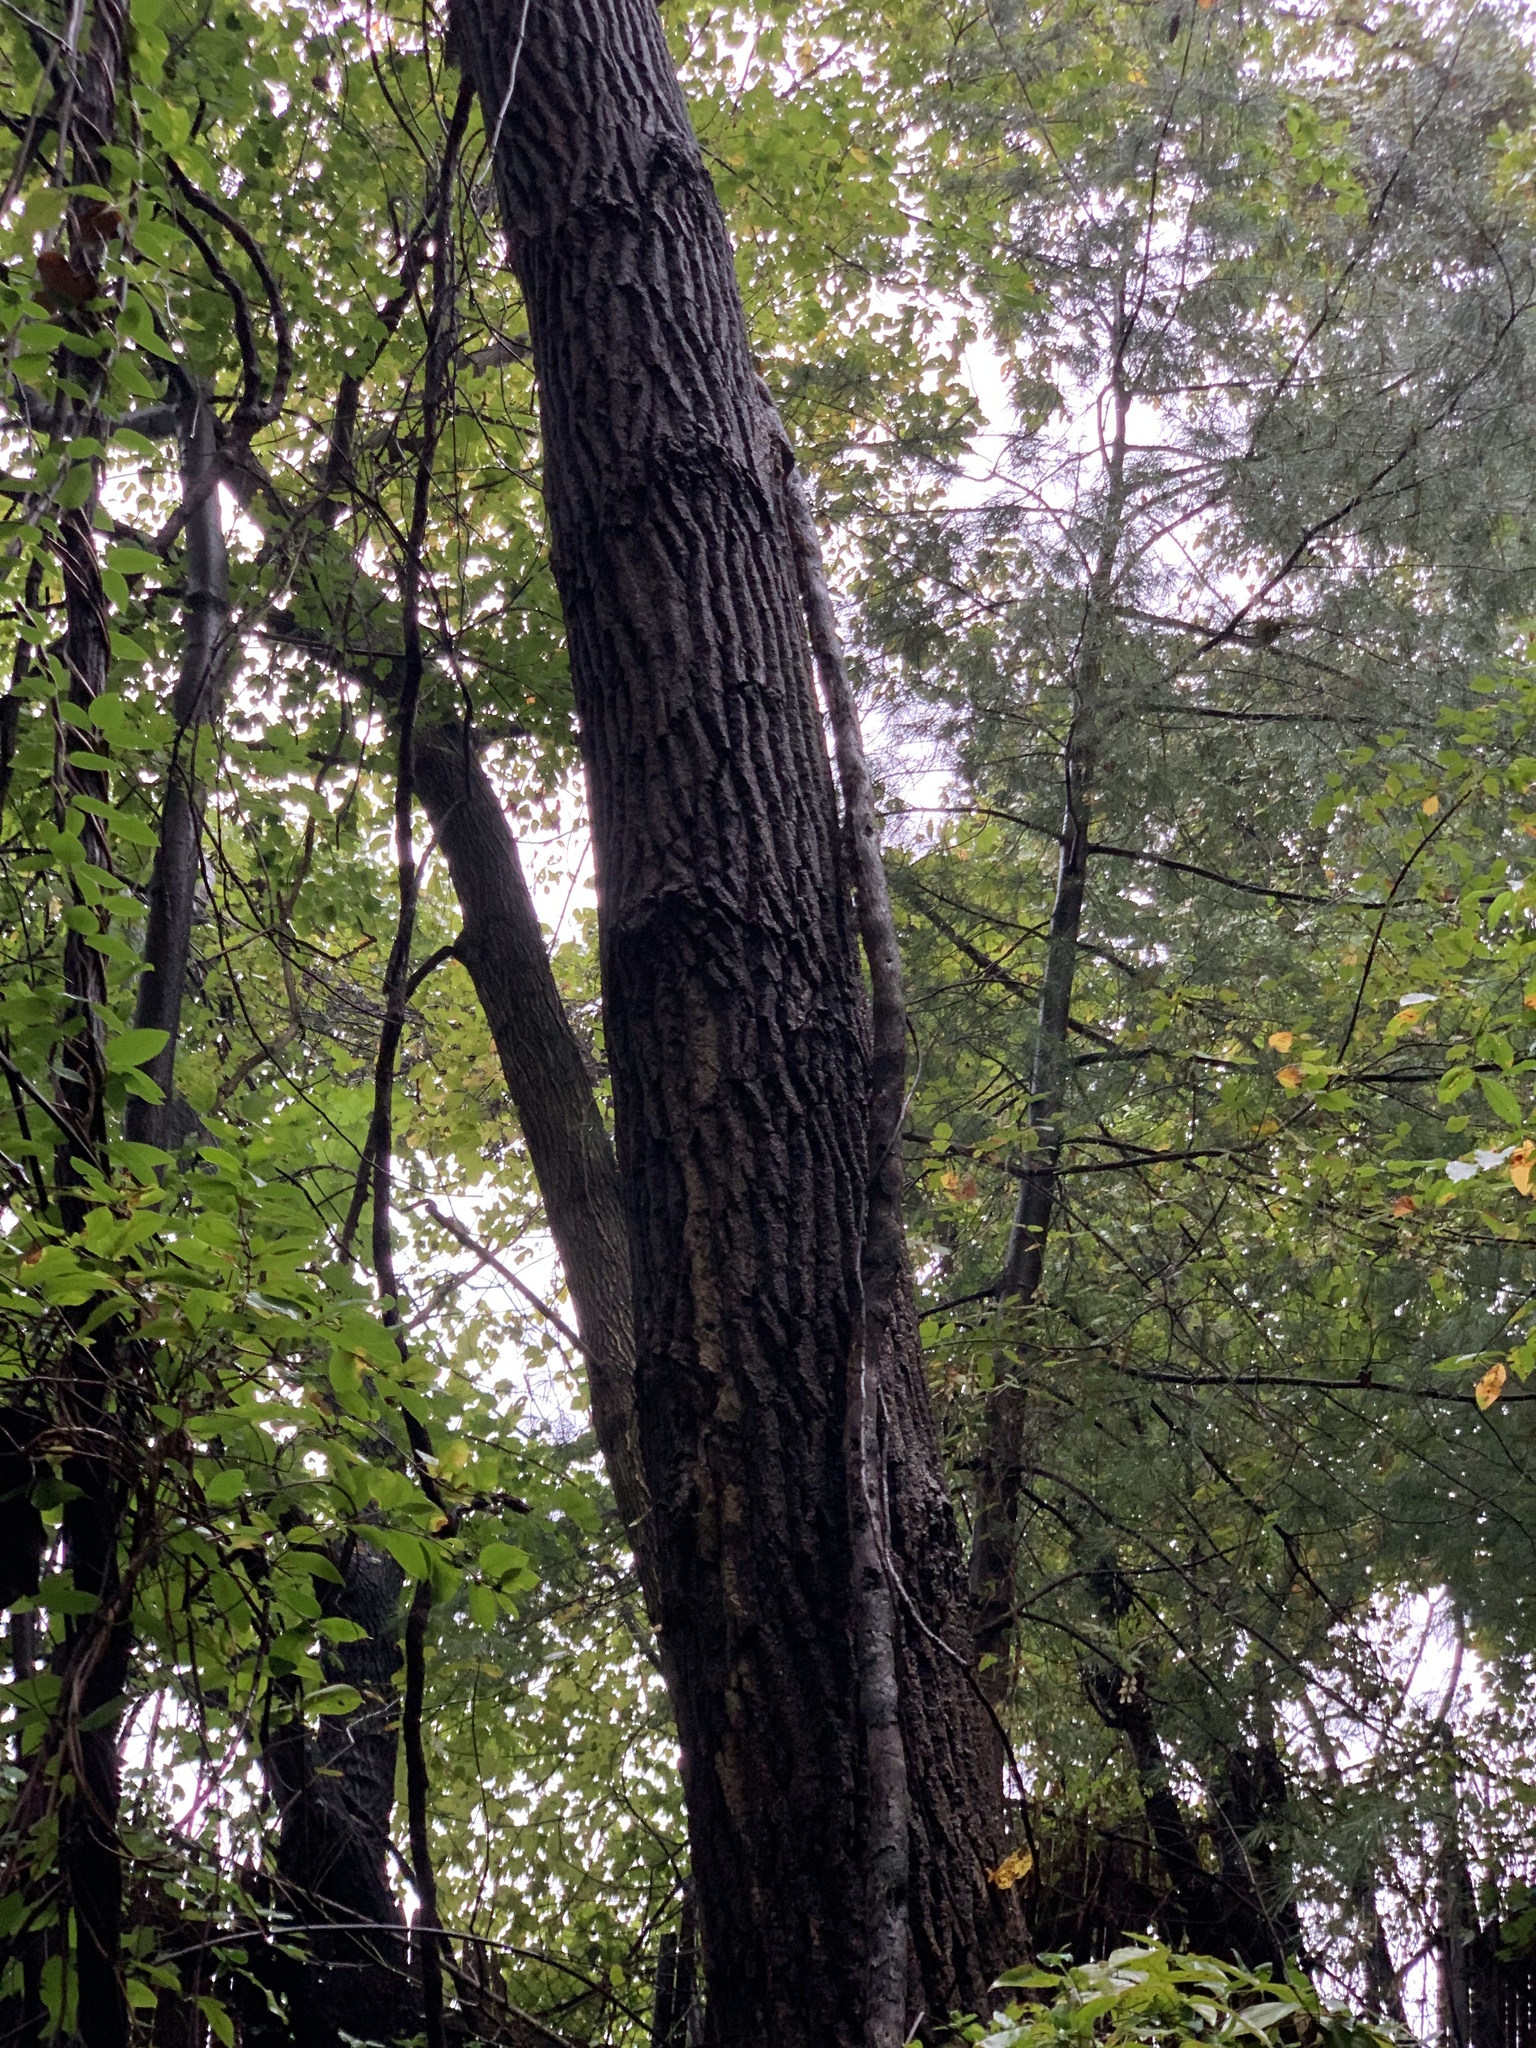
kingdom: Plantae
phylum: Tracheophyta
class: Magnoliopsida
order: Malpighiales
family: Salicaceae
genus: Populus
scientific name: Populus deltoides
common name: Eastern cottonwood
